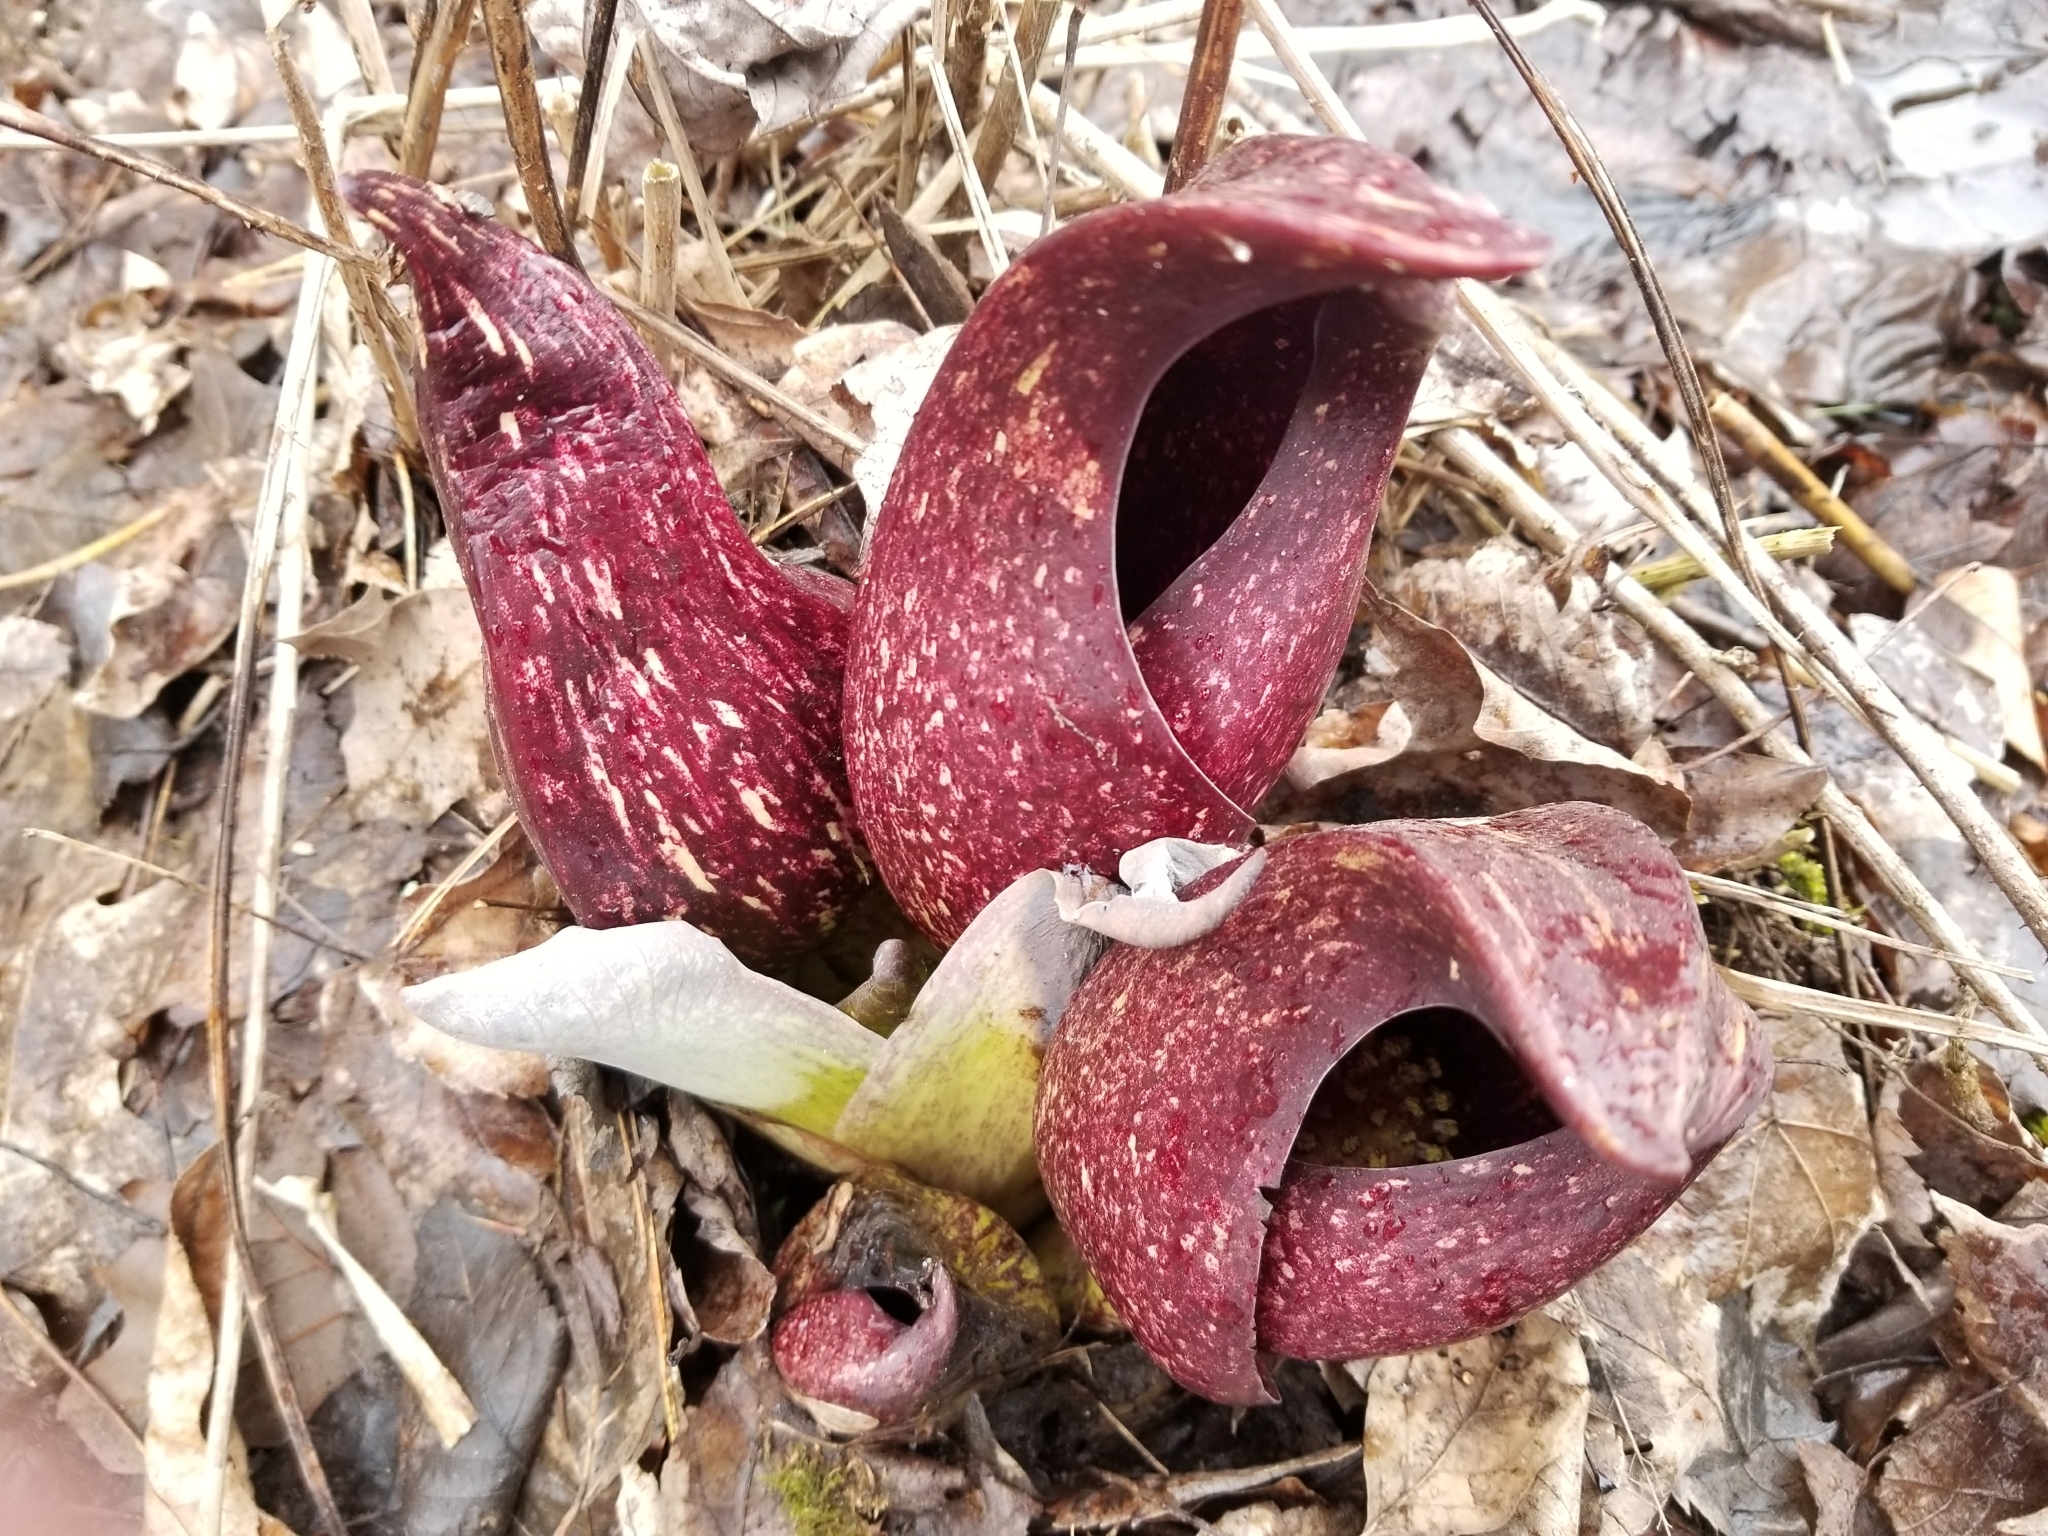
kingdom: Plantae
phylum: Tracheophyta
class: Liliopsida
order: Alismatales
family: Araceae
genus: Symplocarpus
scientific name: Symplocarpus foetidus
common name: Eastern skunk cabbage
